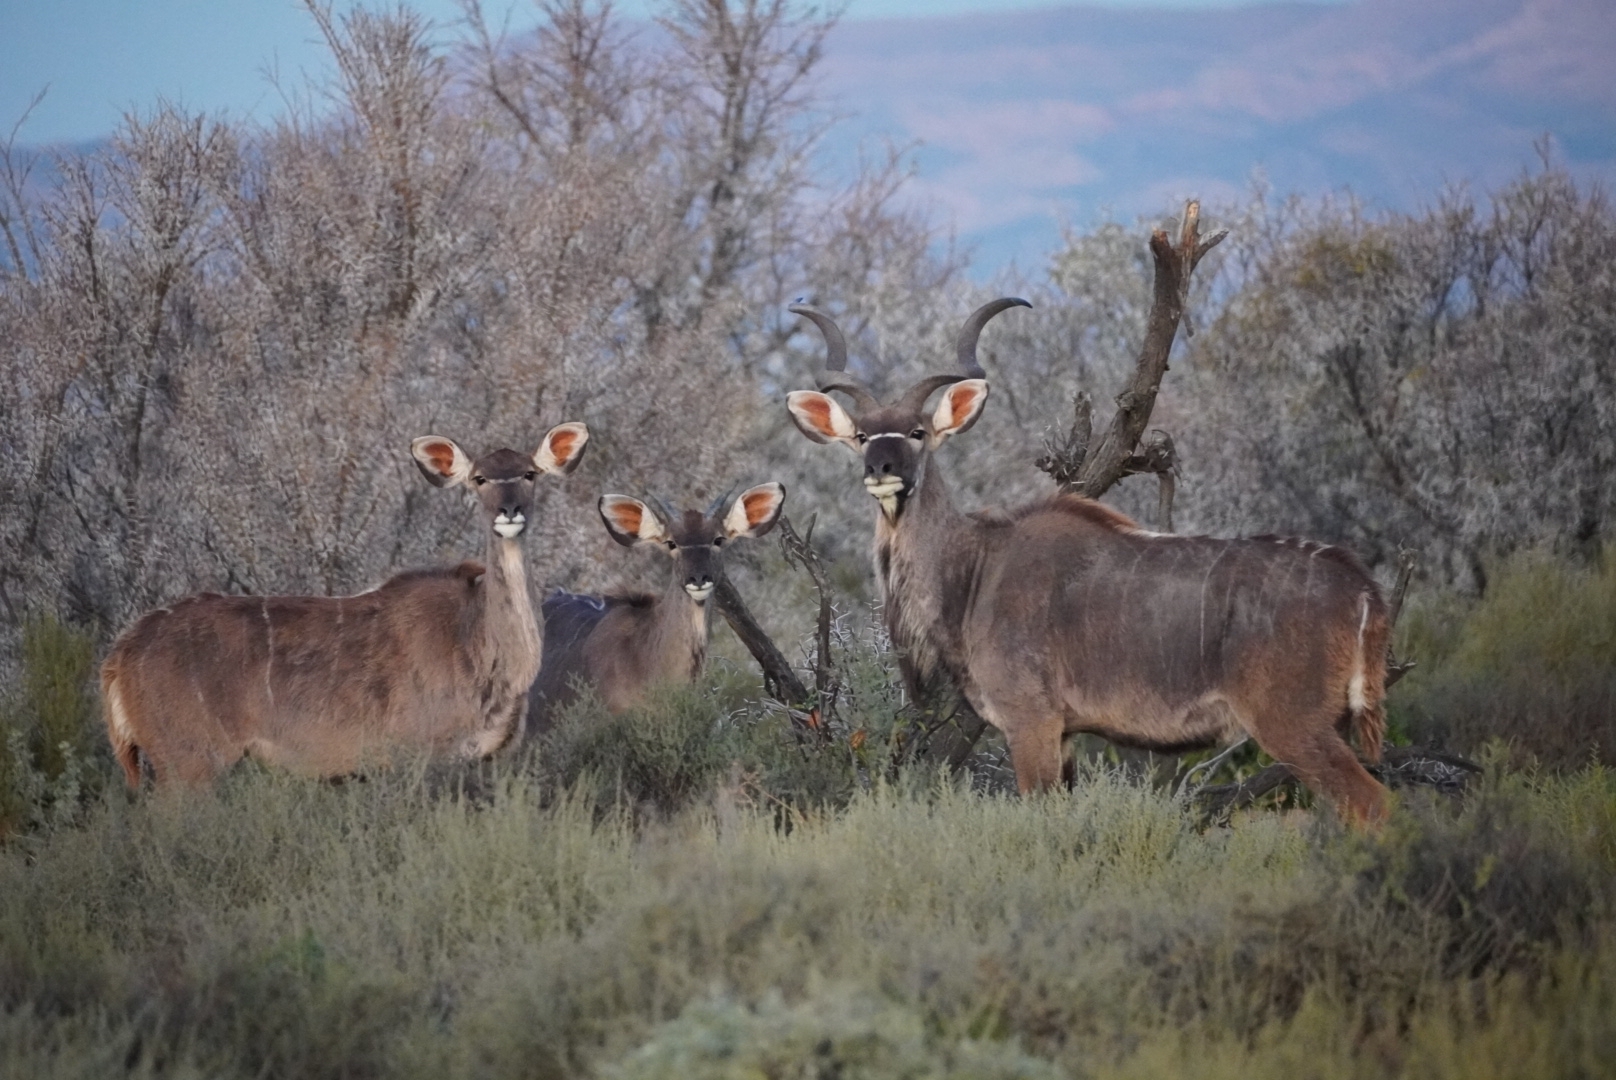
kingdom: Animalia
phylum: Chordata
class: Mammalia
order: Artiodactyla
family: Bovidae
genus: Tragelaphus
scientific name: Tragelaphus strepsiceros
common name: Greater kudu
